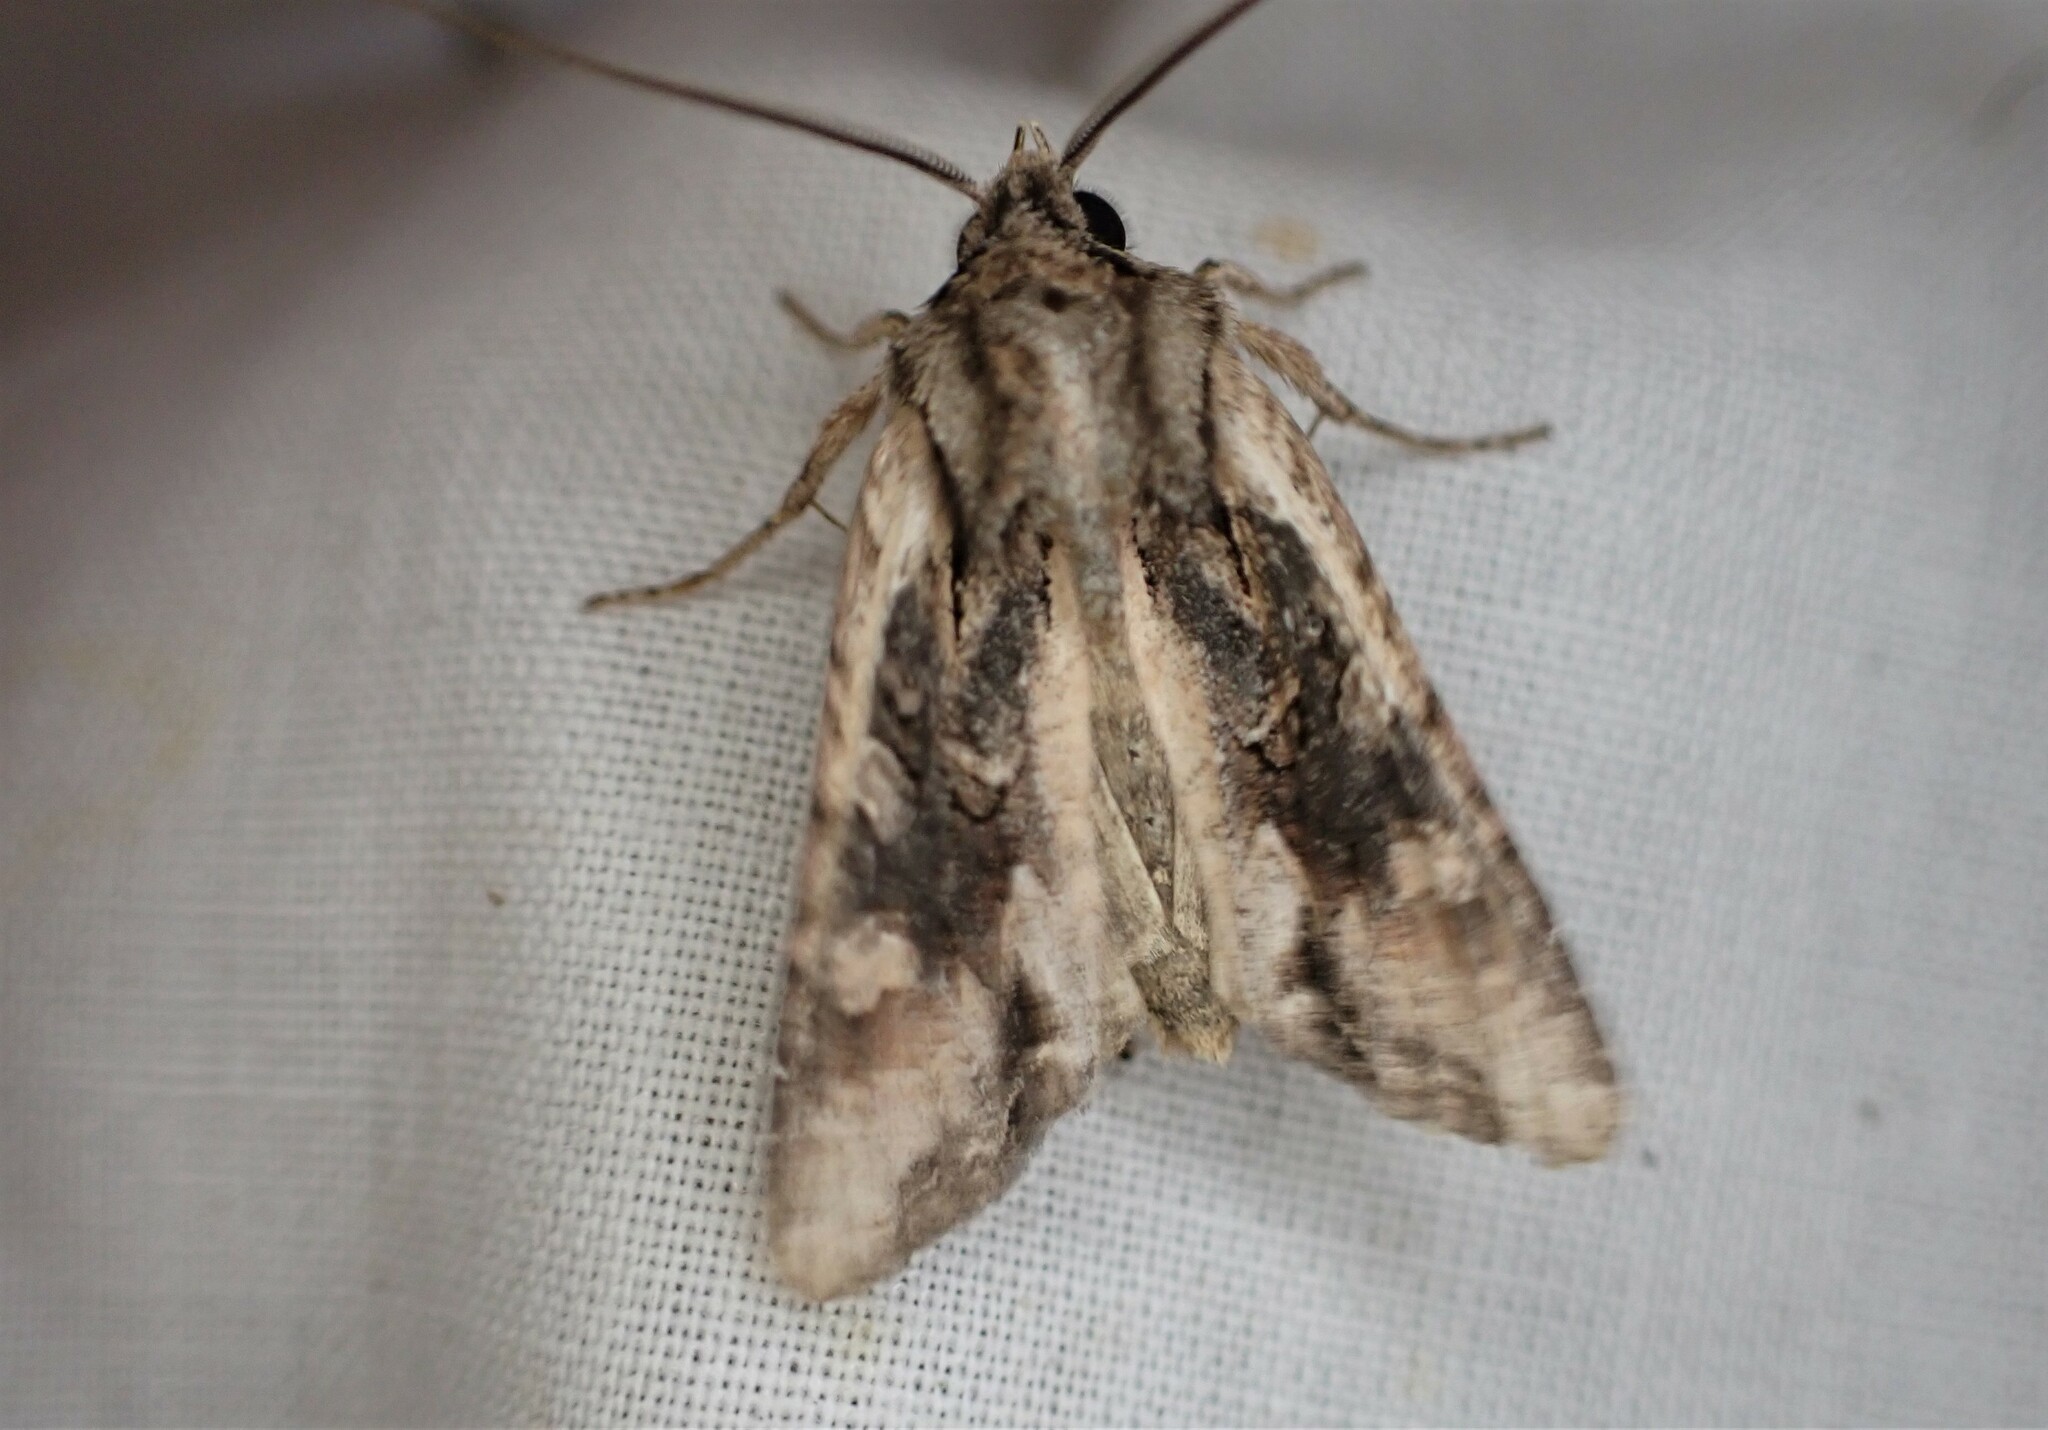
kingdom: Animalia
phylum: Arthropoda
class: Insecta
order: Lepidoptera
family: Noctuidae
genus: Ichneutica
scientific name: Ichneutica mutans
